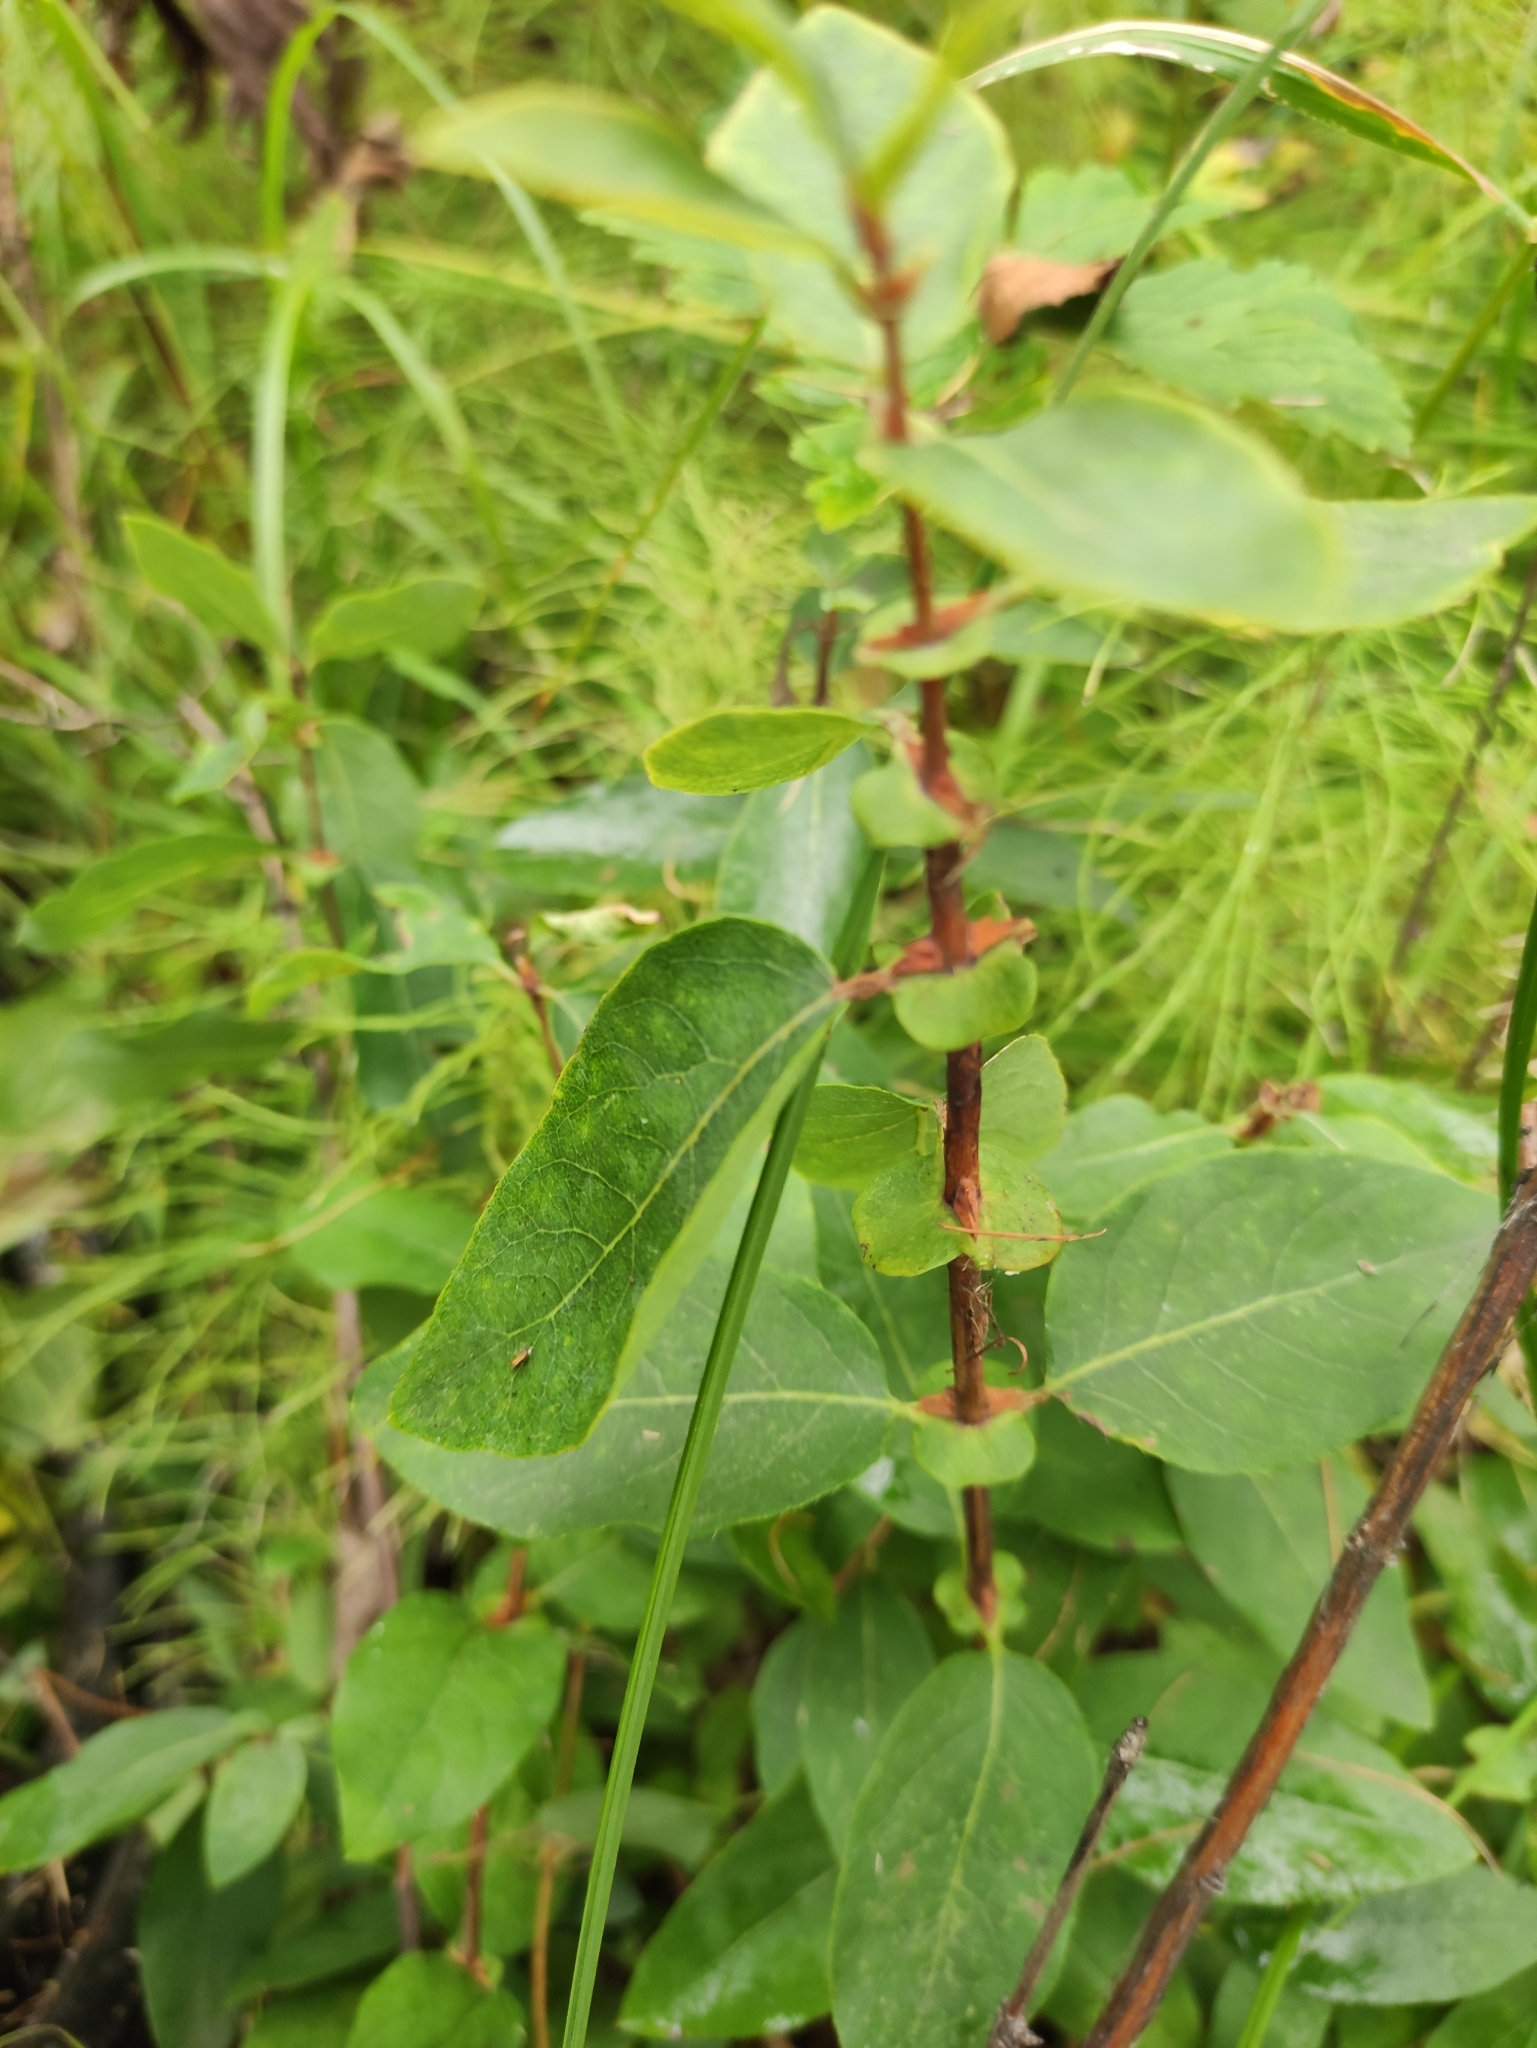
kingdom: Plantae
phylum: Tracheophyta
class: Magnoliopsida
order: Dipsacales
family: Caprifoliaceae
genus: Lonicera
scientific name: Lonicera caerulea
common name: Blue honeysuckle
